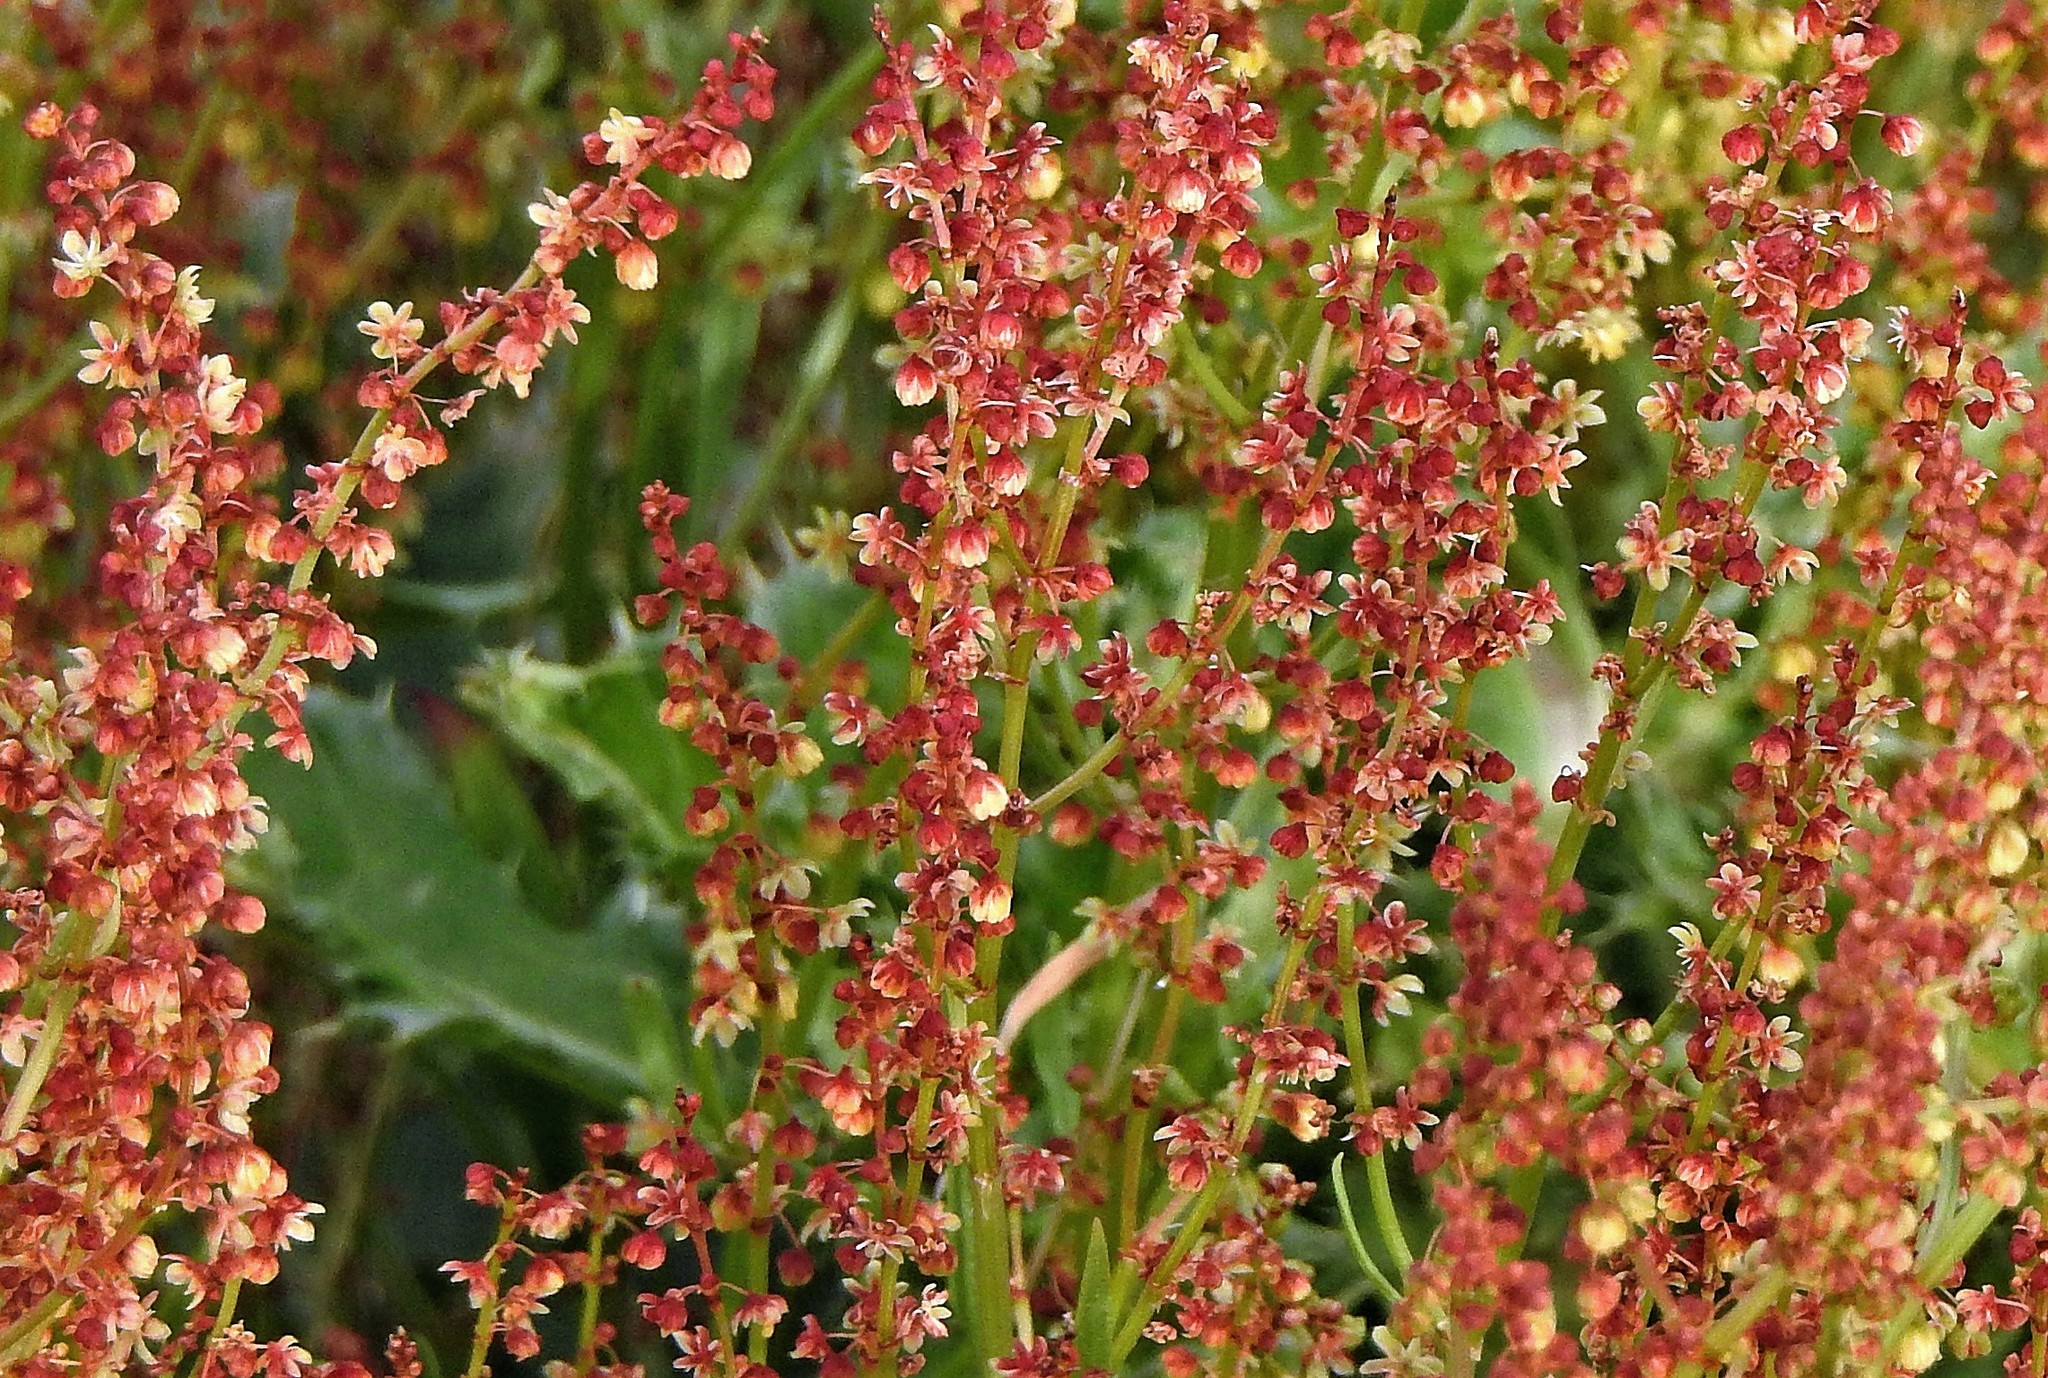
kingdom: Plantae
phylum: Tracheophyta
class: Magnoliopsida
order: Caryophyllales
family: Polygonaceae
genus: Rumex
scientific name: Rumex acetosella
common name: Common sheep sorrel
